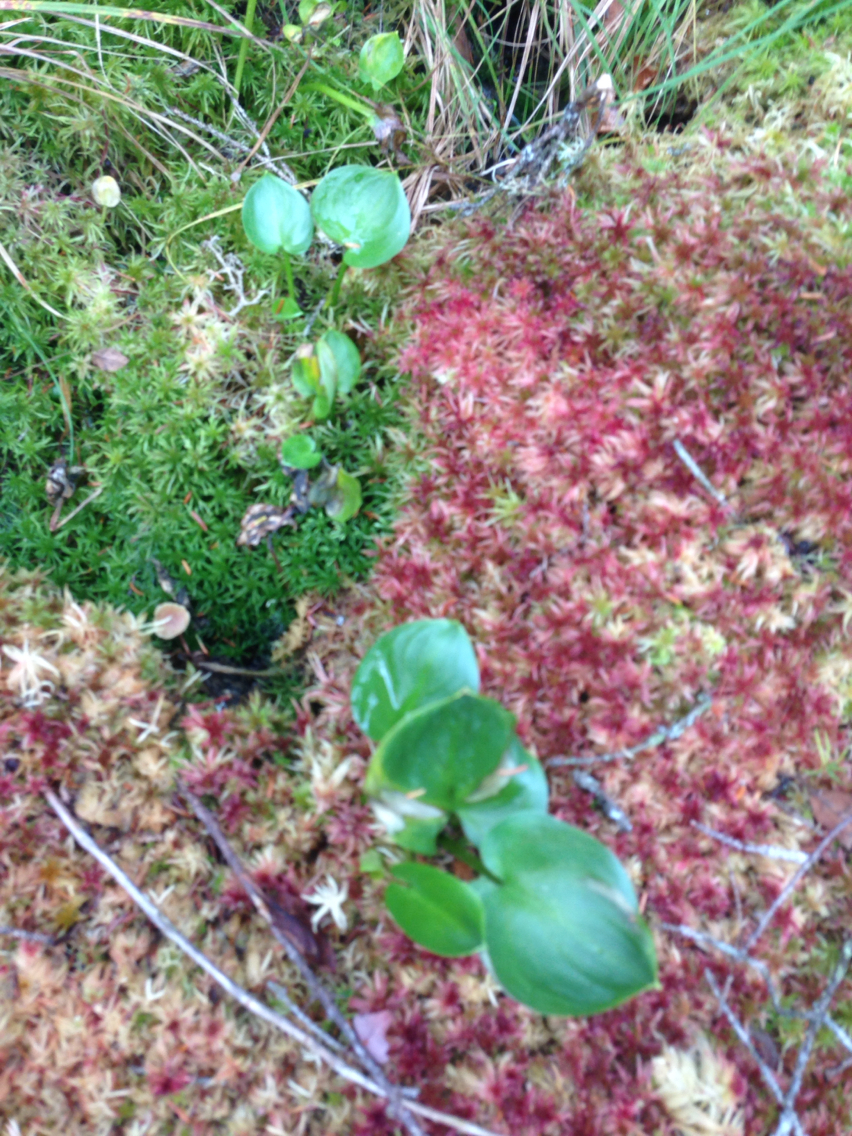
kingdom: Plantae
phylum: Tracheophyta
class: Liliopsida
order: Alismatales
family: Araceae
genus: Calla
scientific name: Calla palustris
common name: Bog arum
